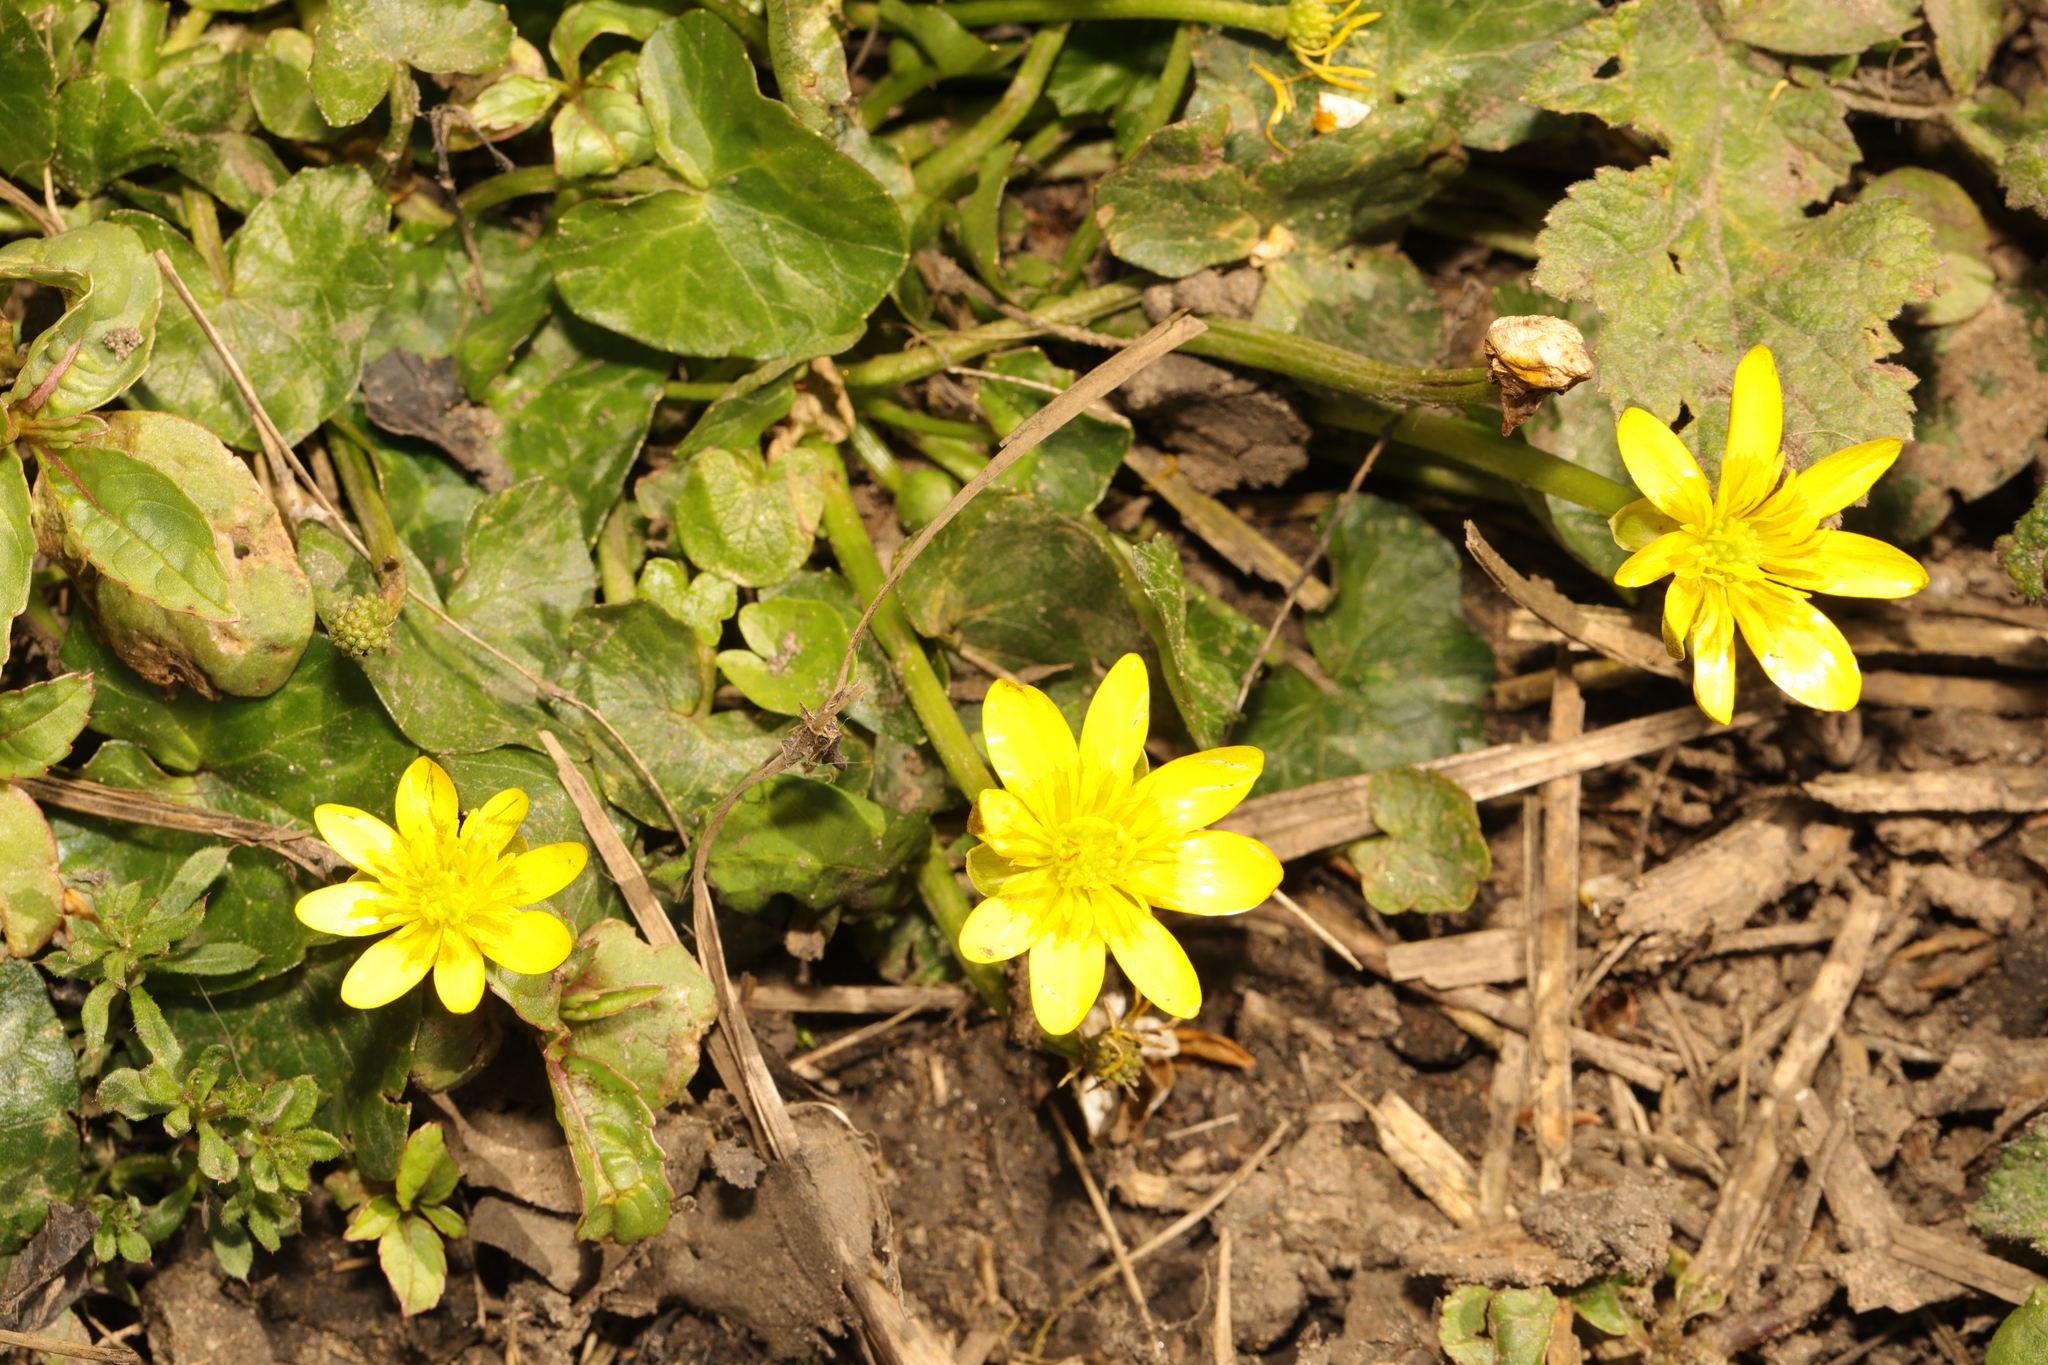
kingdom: Plantae
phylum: Tracheophyta
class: Magnoliopsida
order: Ranunculales
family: Ranunculaceae
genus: Ficaria
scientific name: Ficaria verna
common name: Lesser celandine
